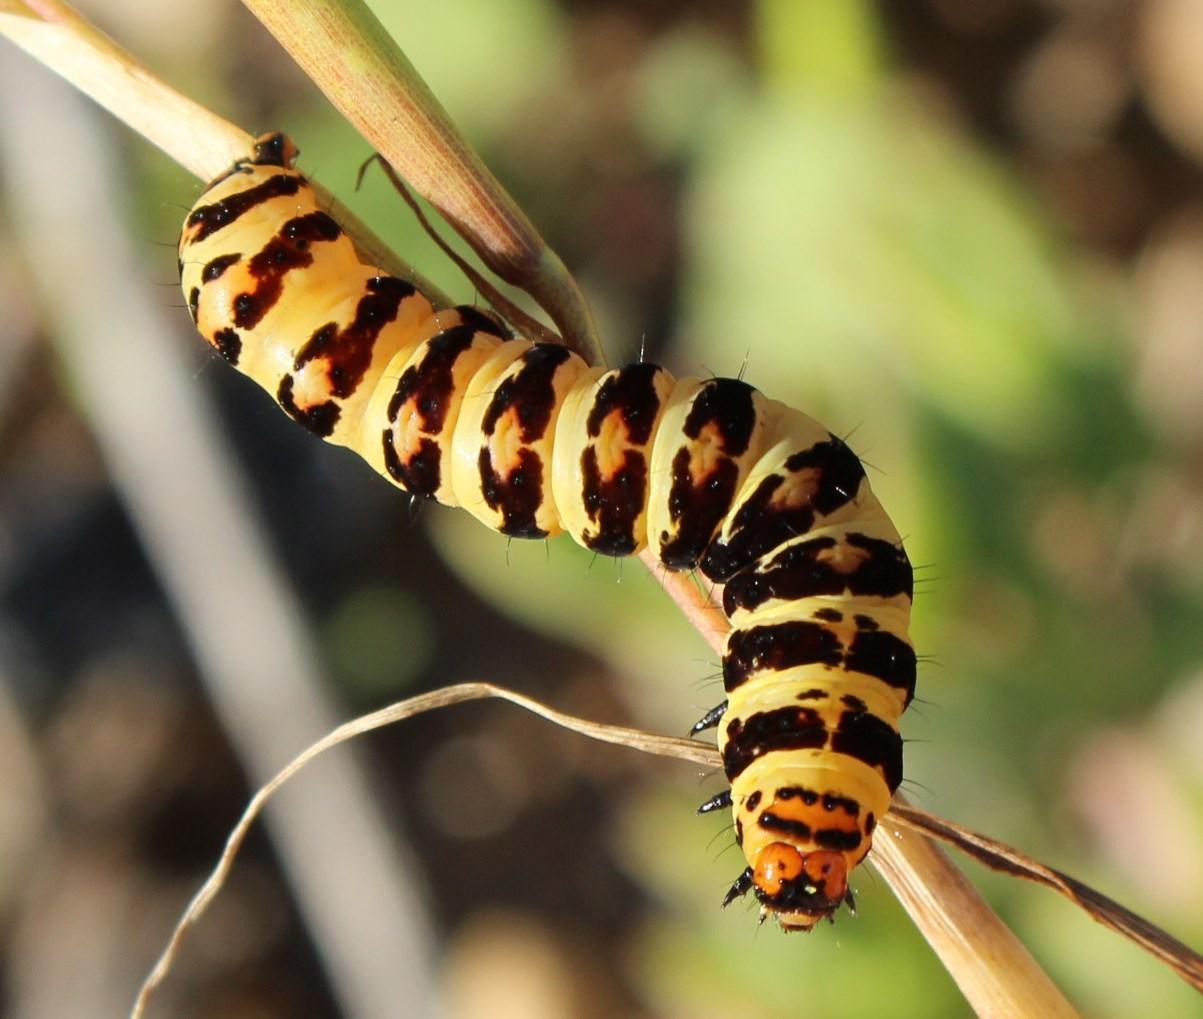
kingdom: Animalia
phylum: Arthropoda
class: Insecta
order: Lepidoptera
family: Noctuidae
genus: Diaphone
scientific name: Diaphone eumela
